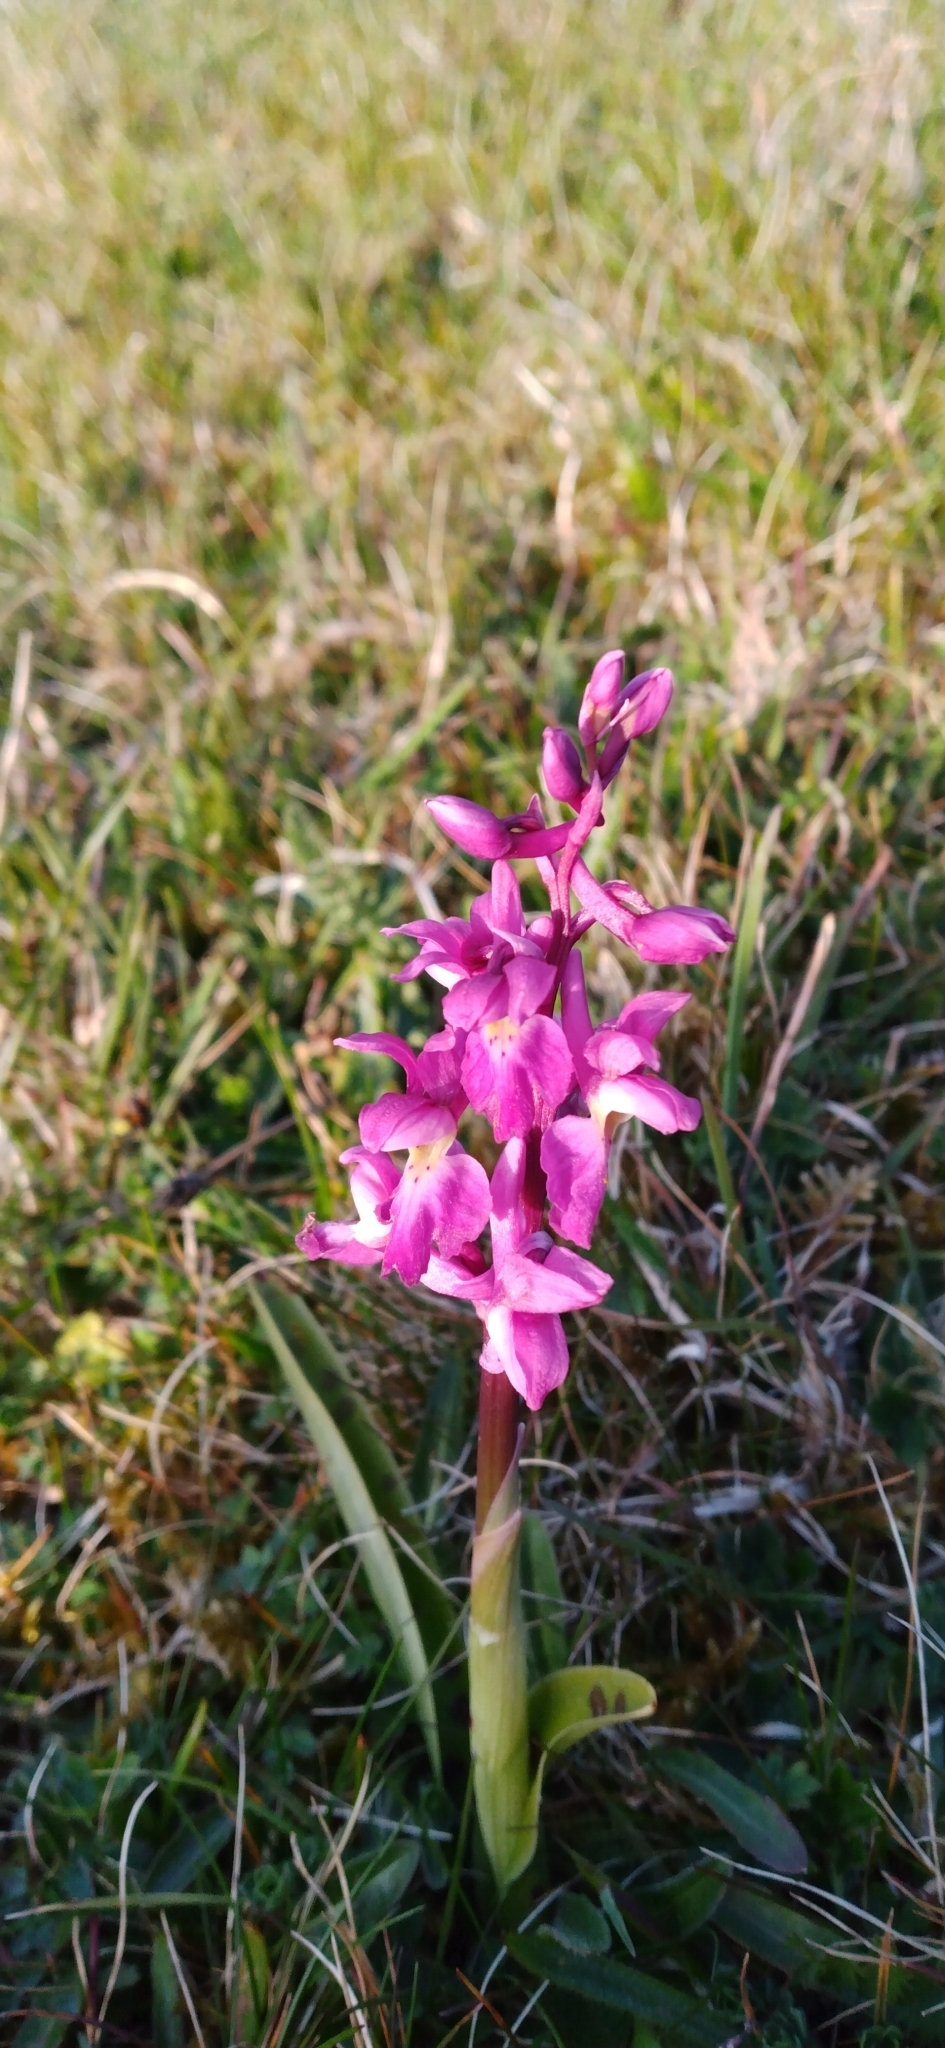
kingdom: Plantae
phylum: Tracheophyta
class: Liliopsida
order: Asparagales
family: Orchidaceae
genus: Orchis
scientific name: Orchis mascula
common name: Early-purple orchid
